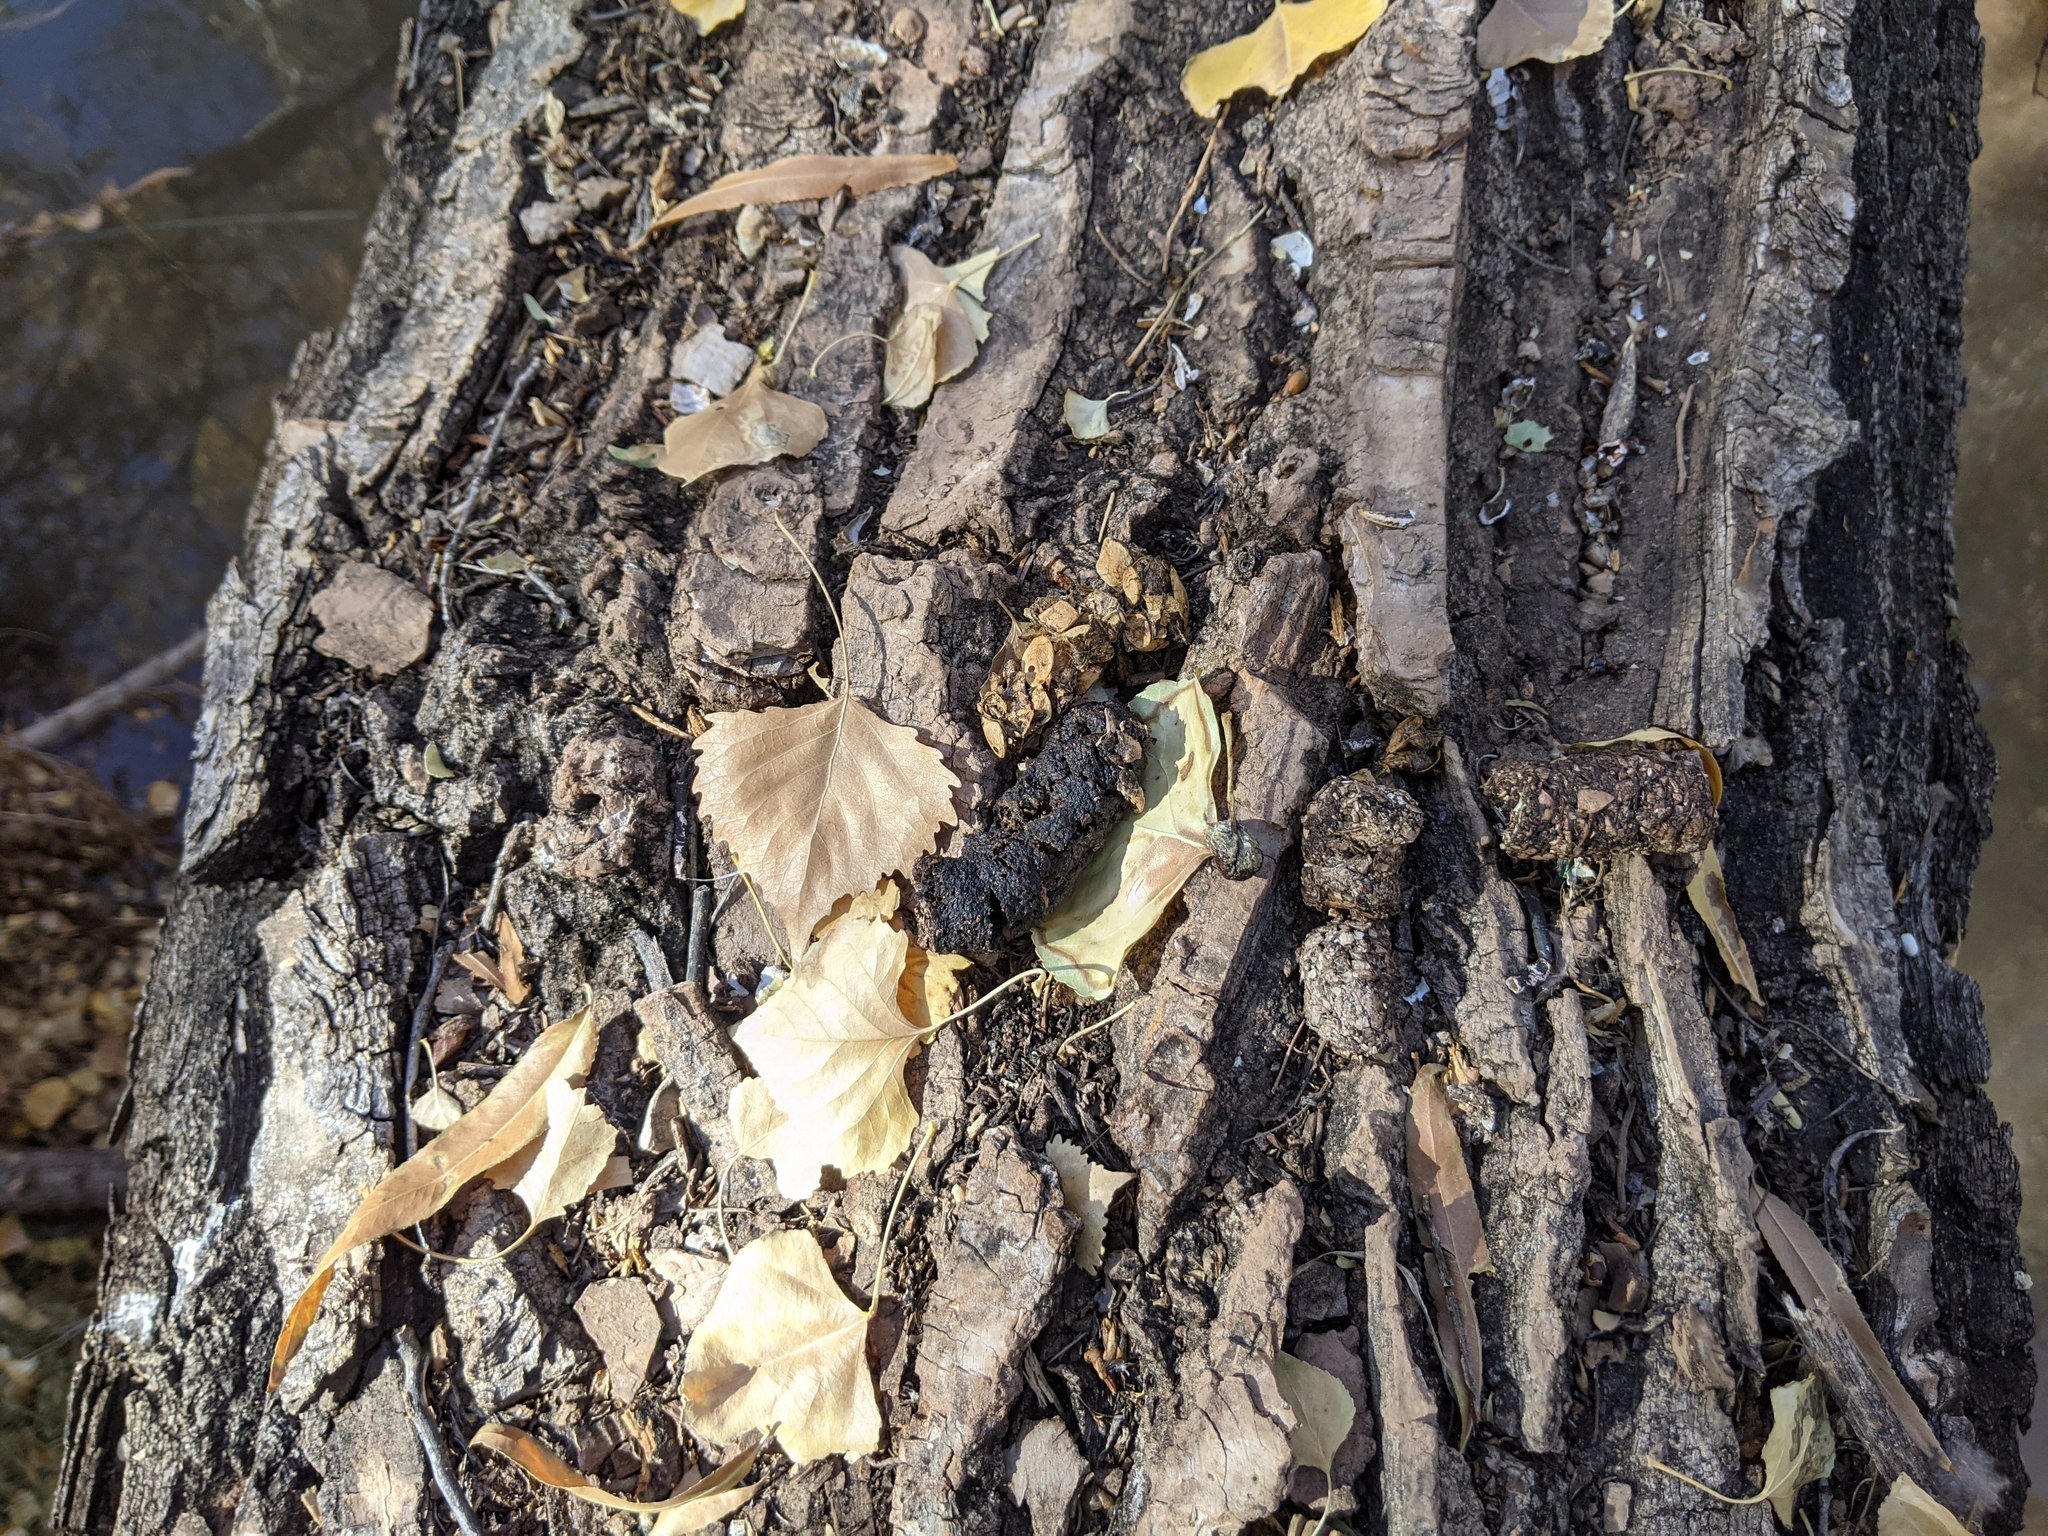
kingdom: Animalia
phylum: Chordata
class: Mammalia
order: Carnivora
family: Procyonidae
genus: Procyon
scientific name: Procyon lotor
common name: Raccoon
